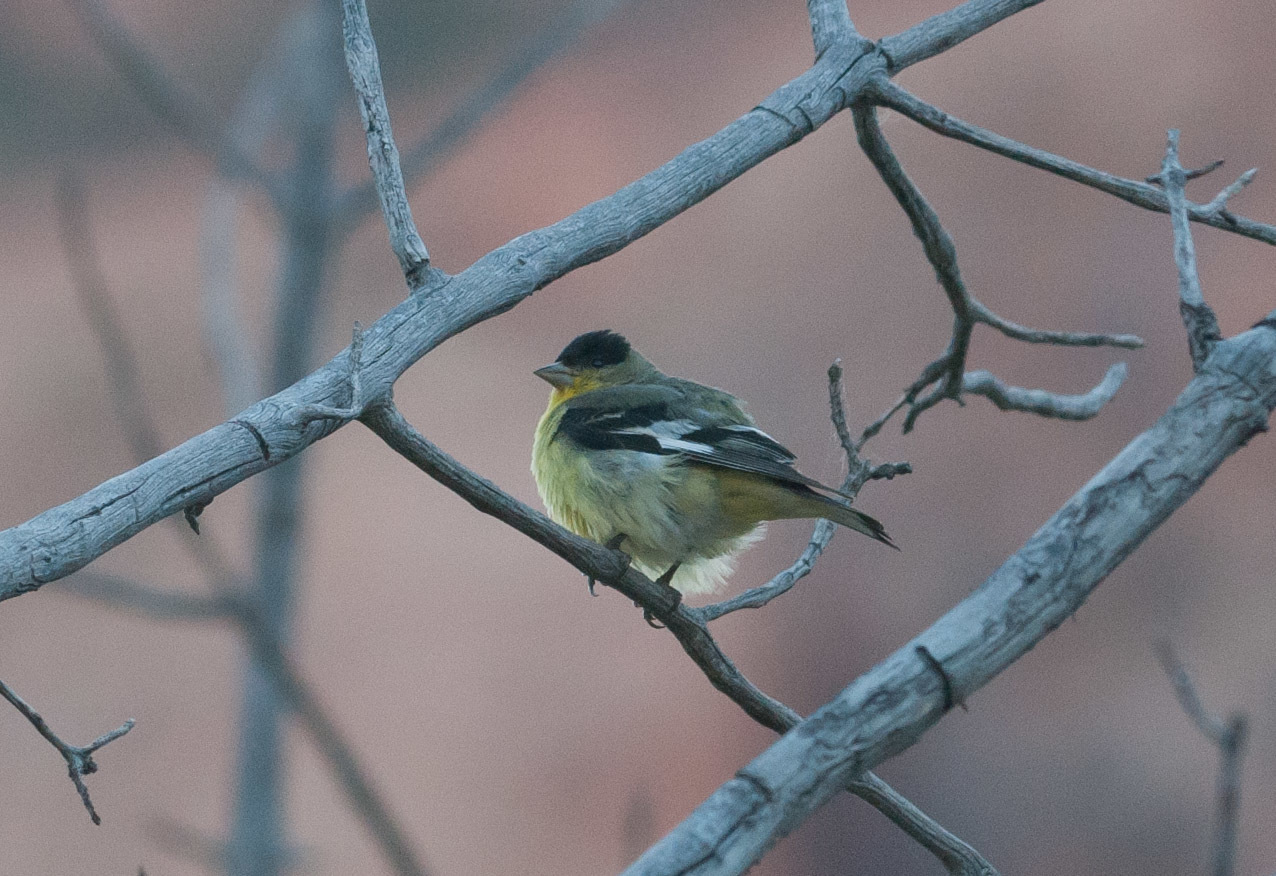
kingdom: Animalia
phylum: Chordata
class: Aves
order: Passeriformes
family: Fringillidae
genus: Spinus
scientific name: Spinus psaltria
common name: Lesser goldfinch
